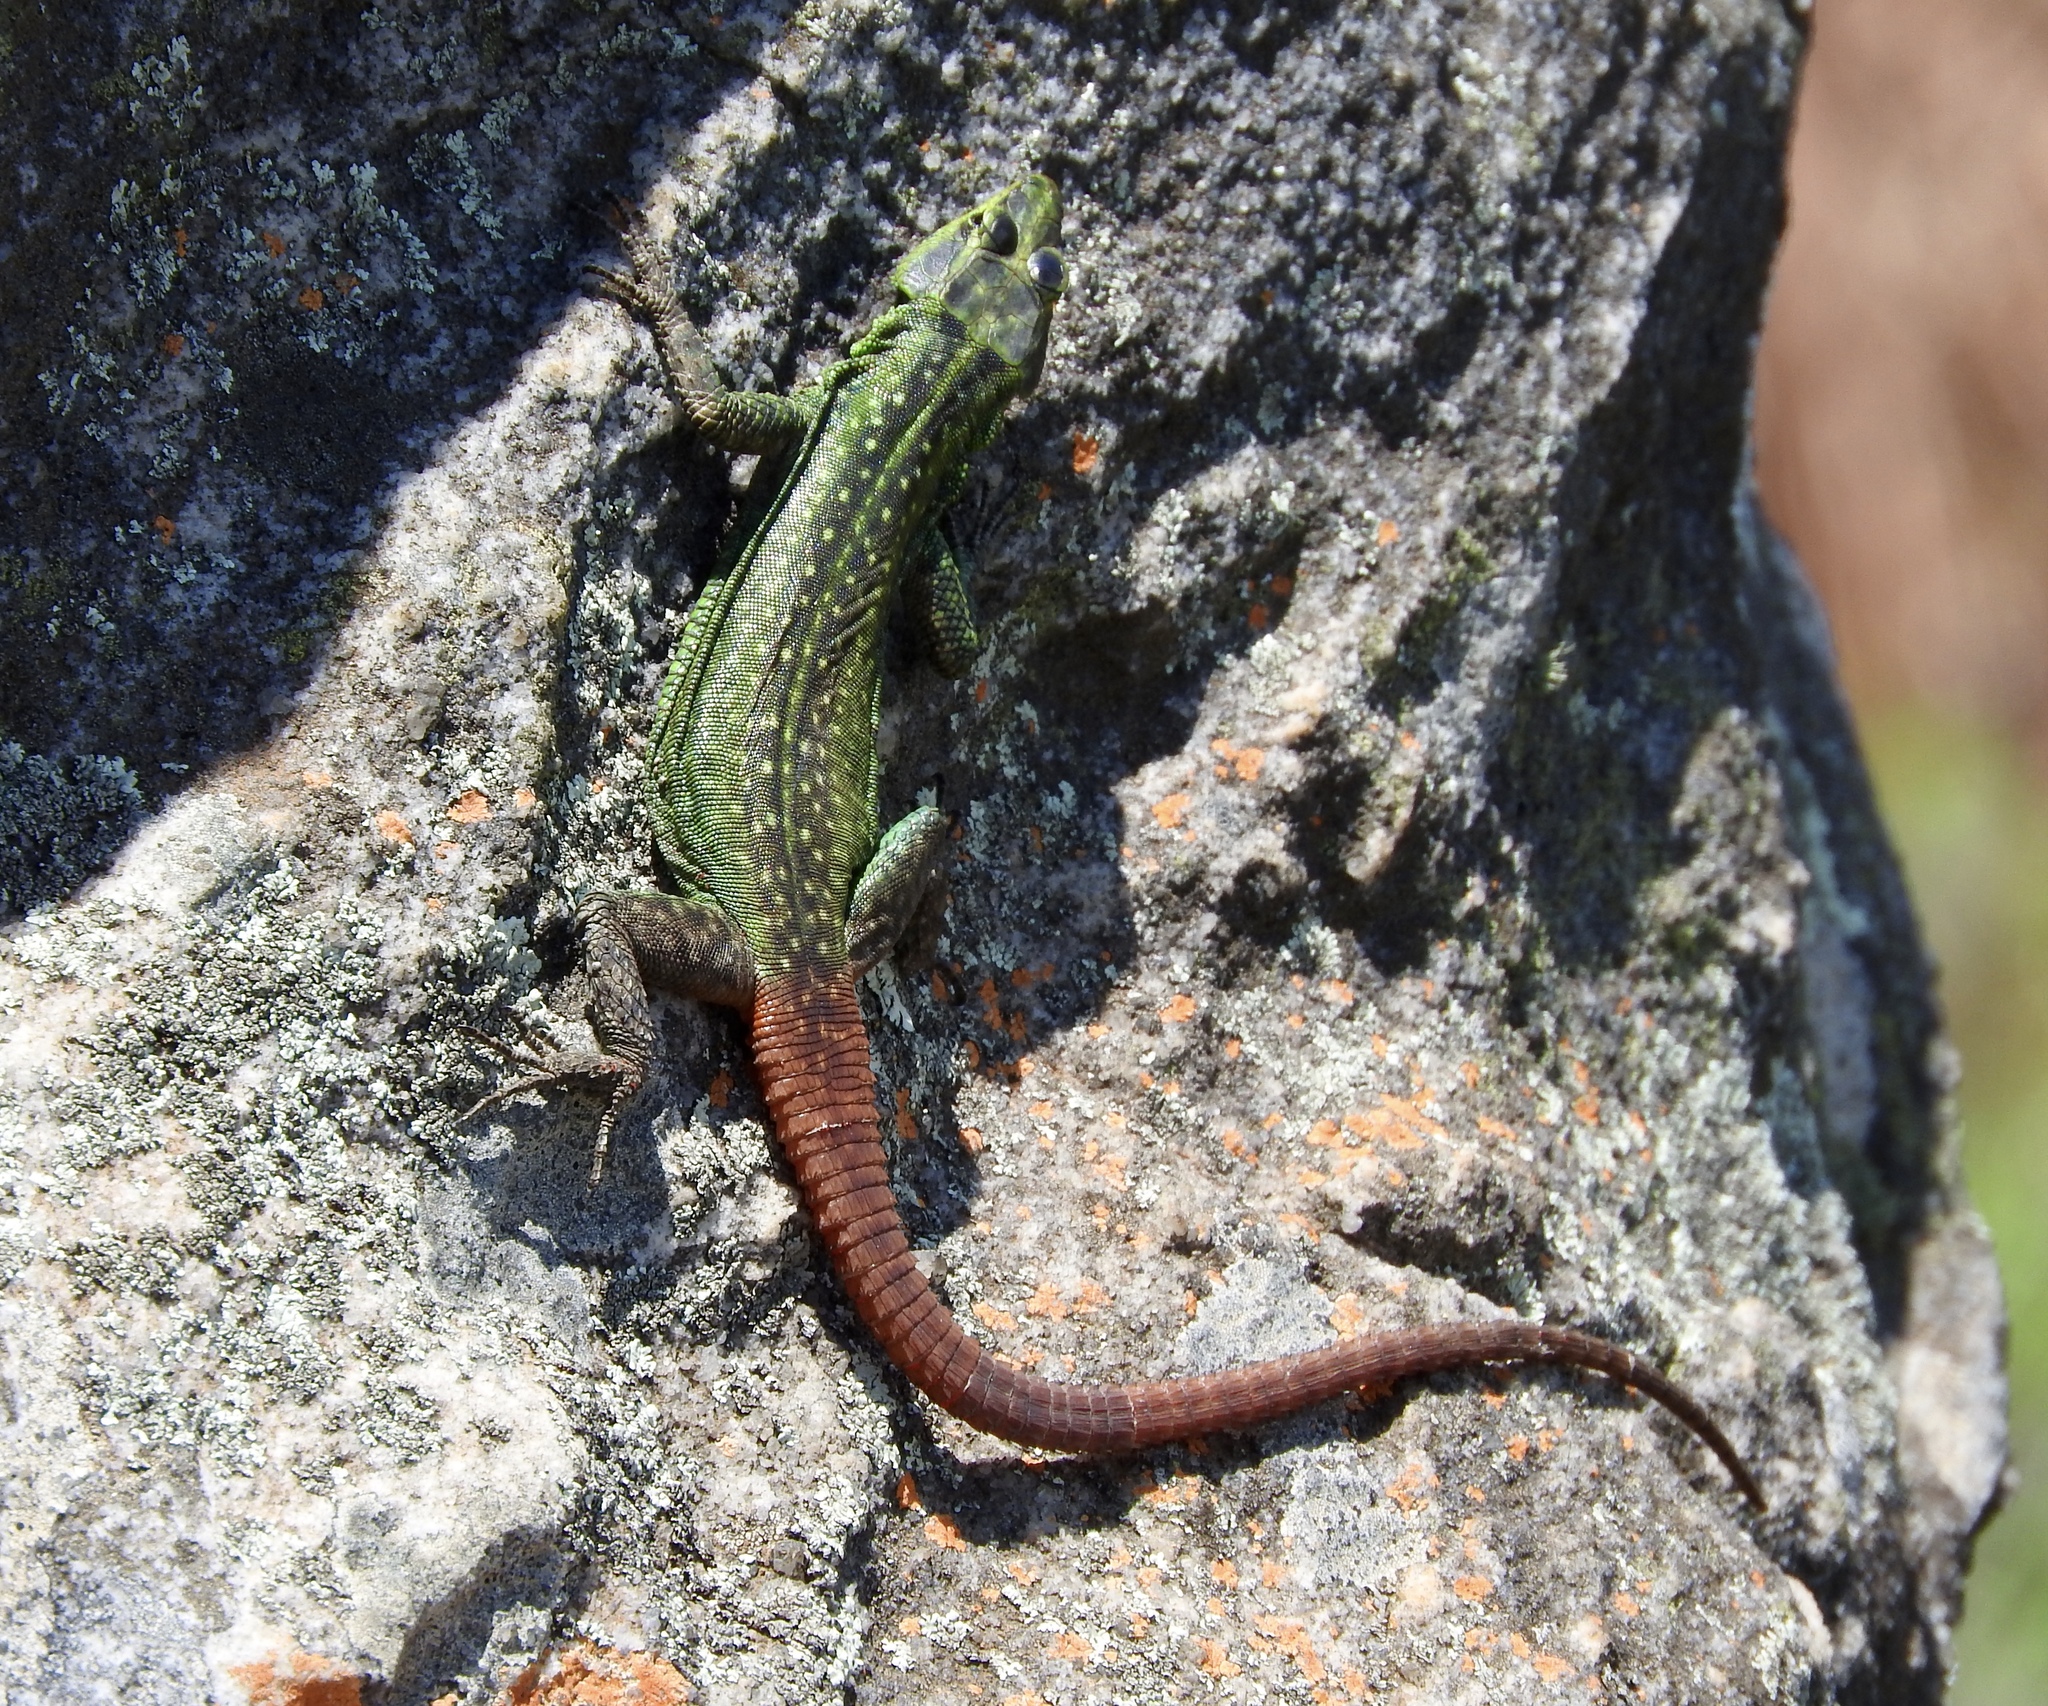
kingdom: Animalia
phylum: Chordata
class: Squamata
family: Cordylidae
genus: Platysaurus
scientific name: Platysaurus orientalis
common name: Sekhukune flat lizard
